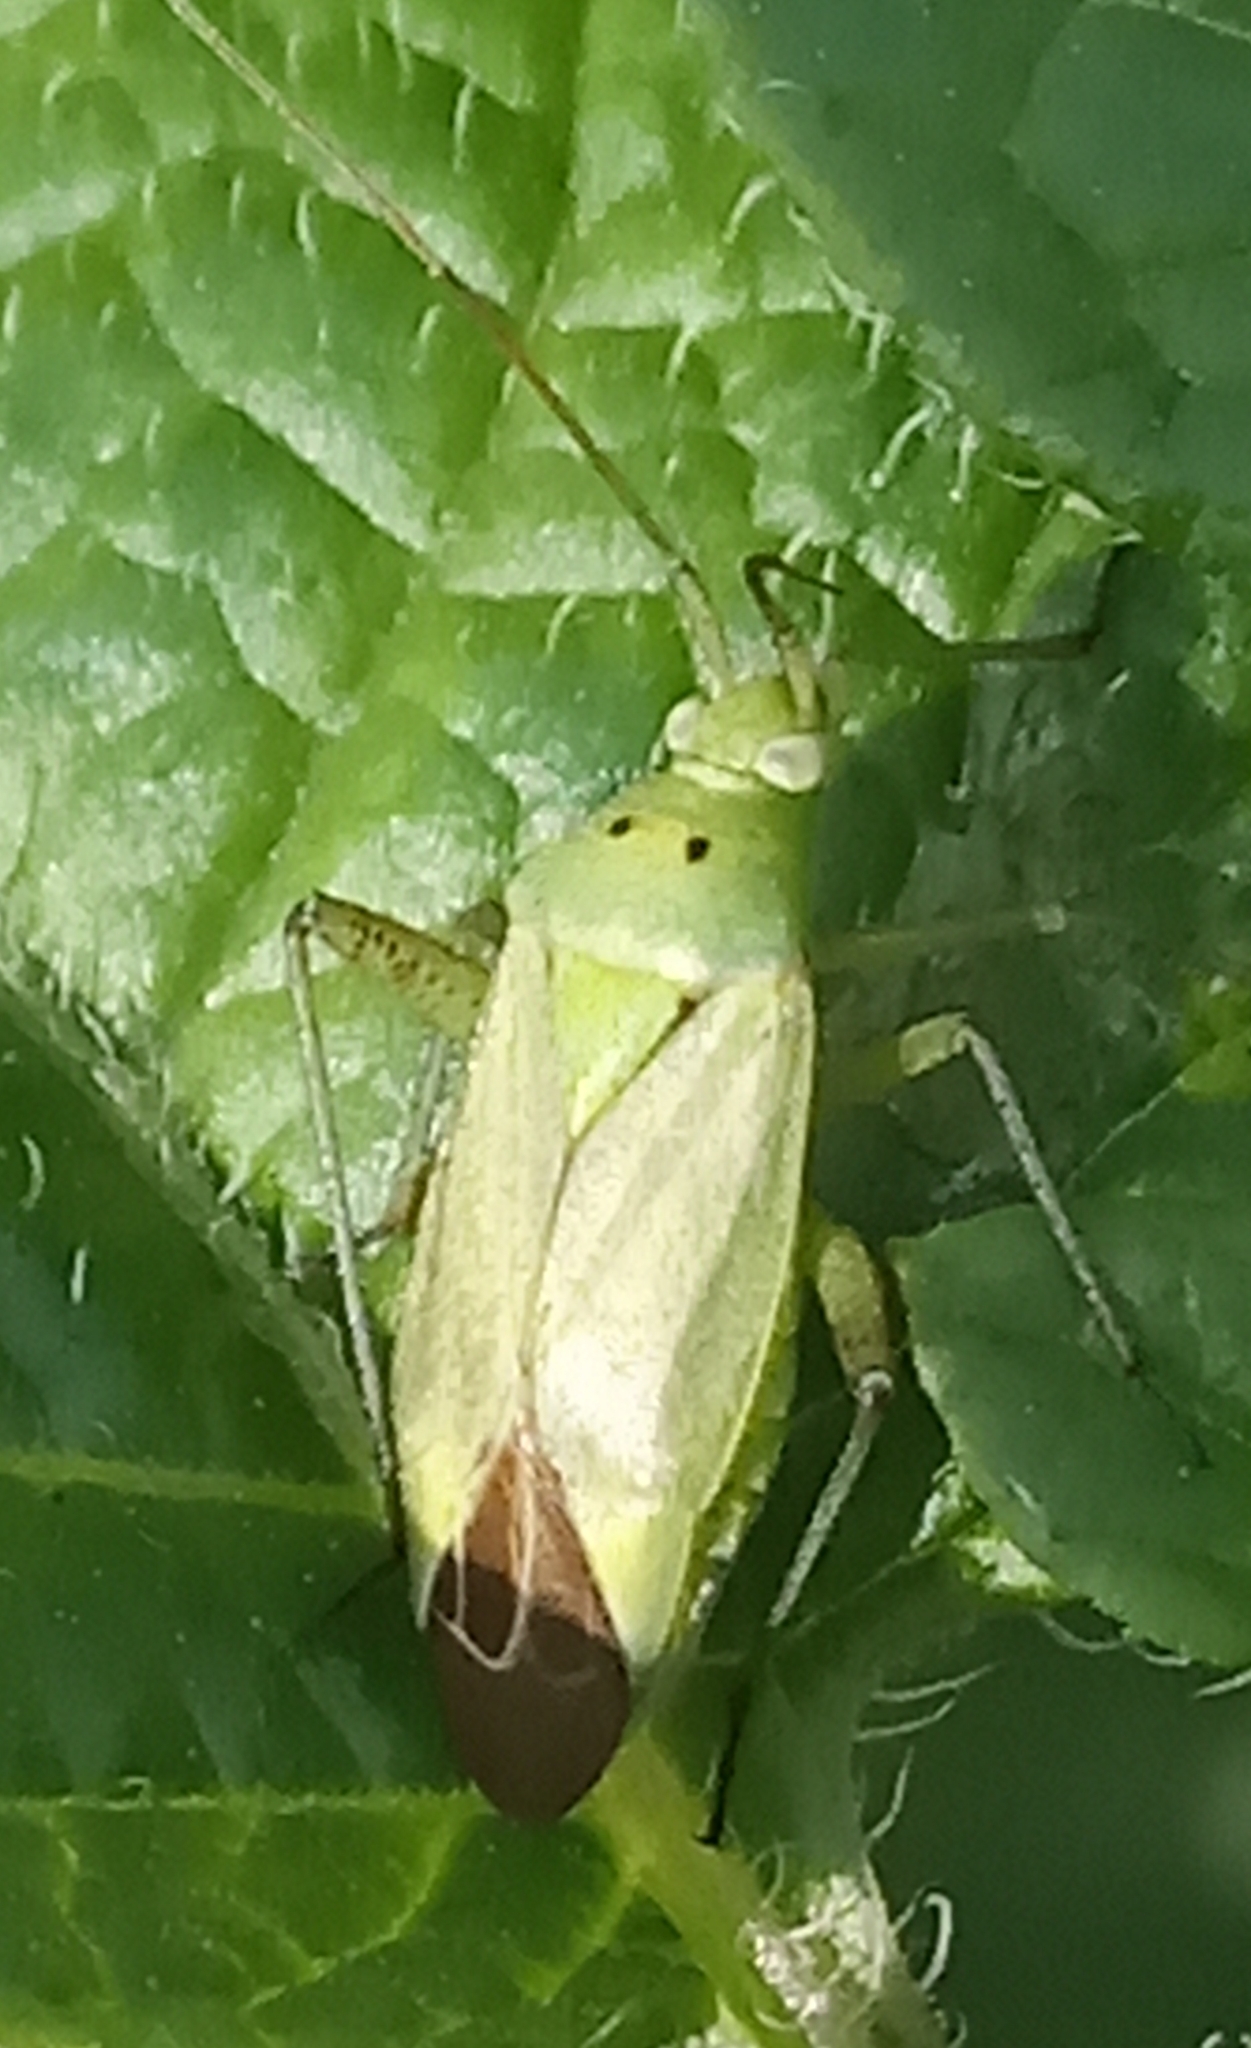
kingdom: Animalia
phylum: Arthropoda
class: Insecta
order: Hemiptera
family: Miridae
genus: Closterotomus
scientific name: Closterotomus norvegicus
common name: Plant bug
